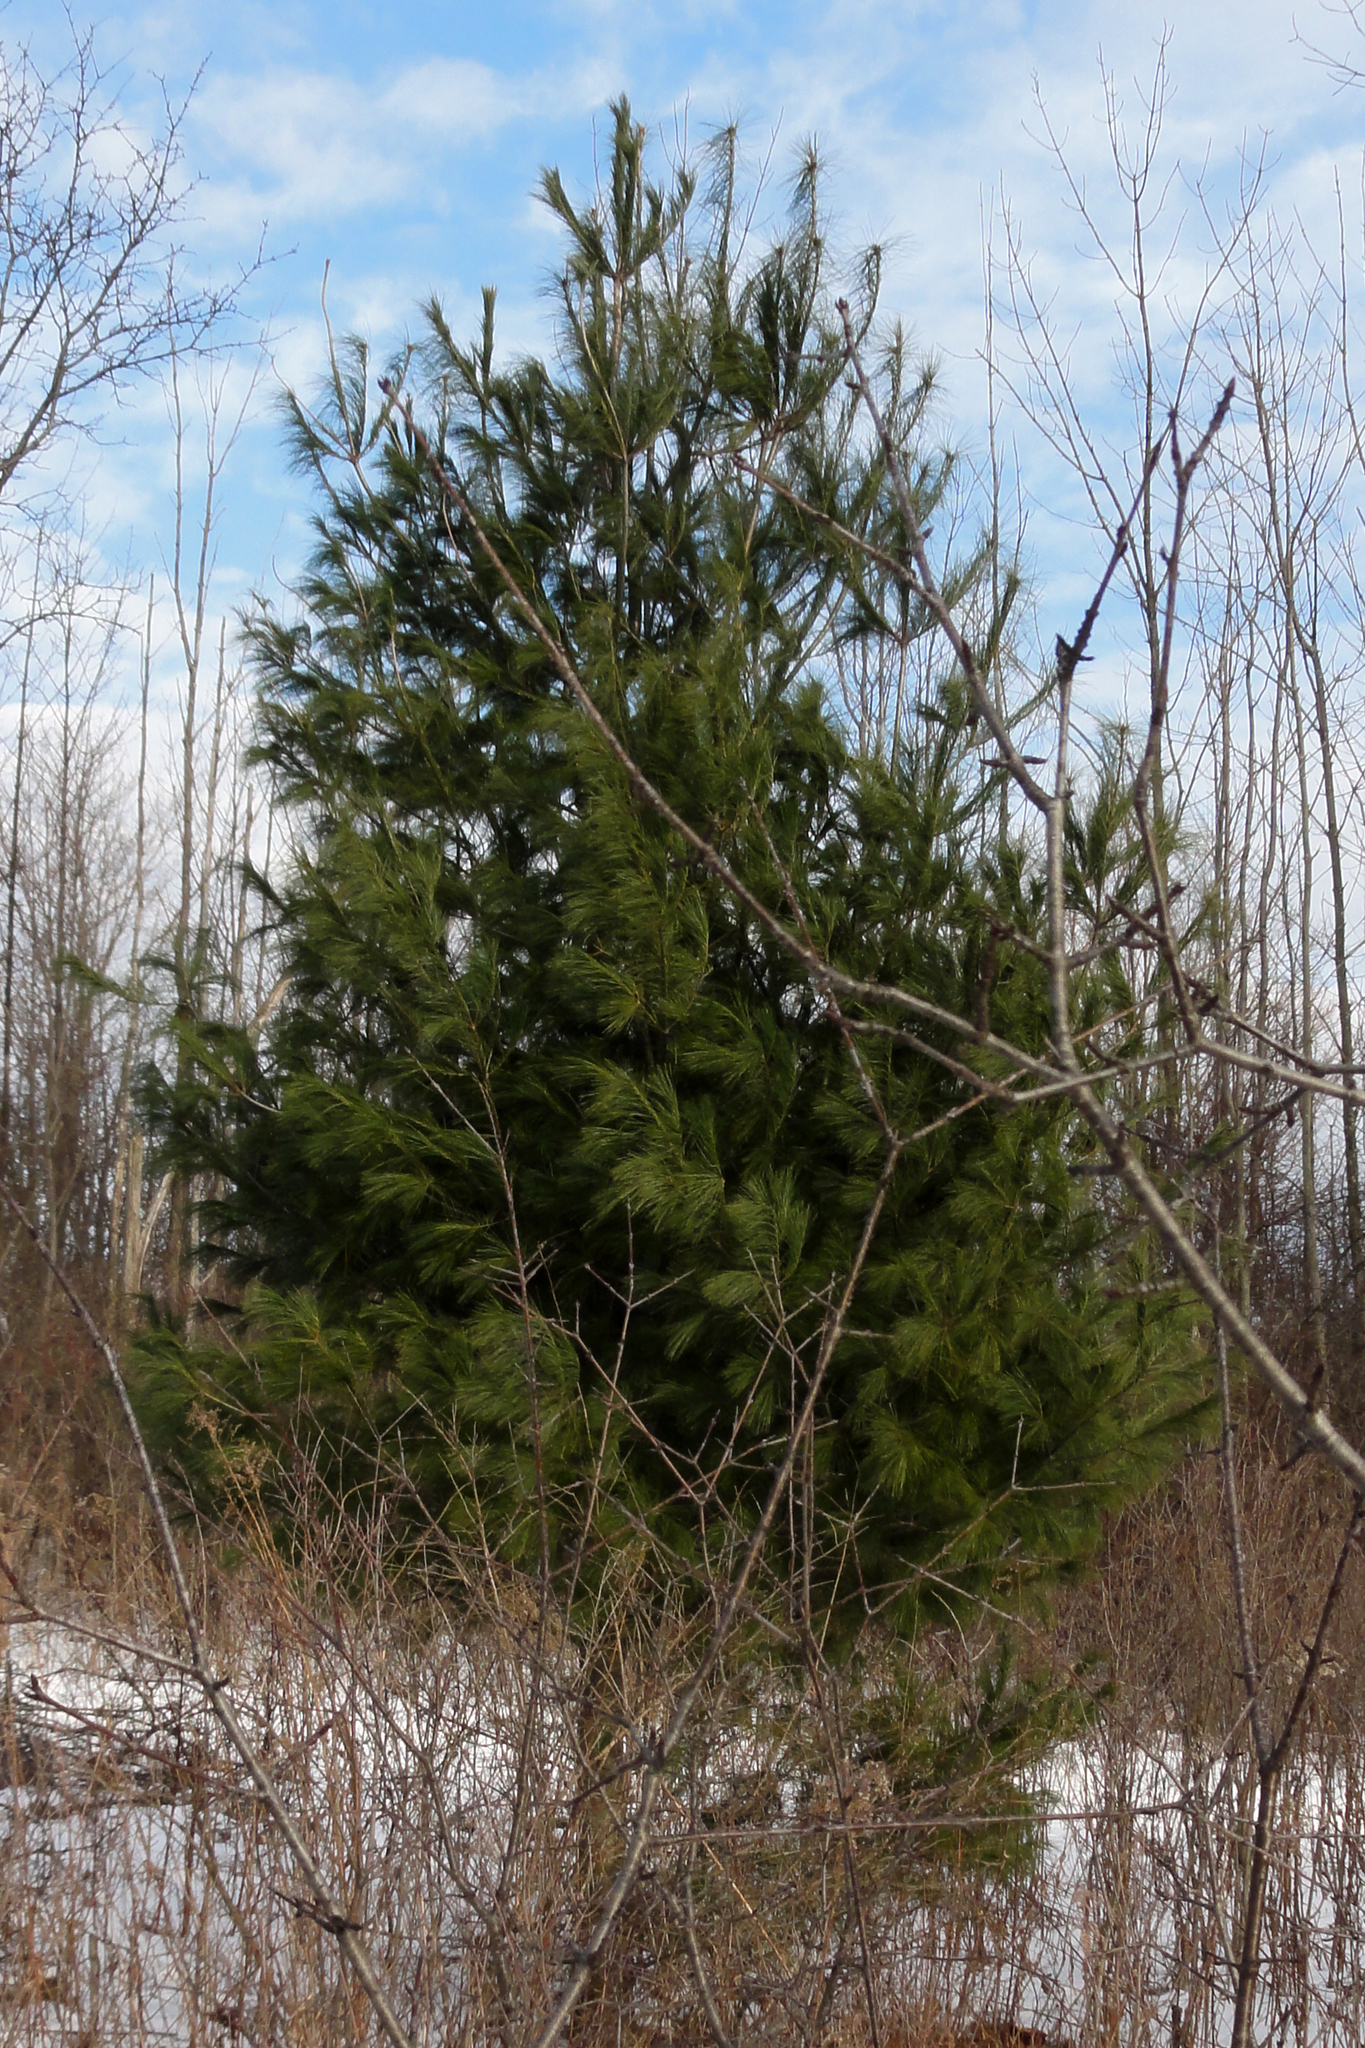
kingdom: Plantae
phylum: Tracheophyta
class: Pinopsida
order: Pinales
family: Pinaceae
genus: Pinus
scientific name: Pinus strobus
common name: Weymouth pine
